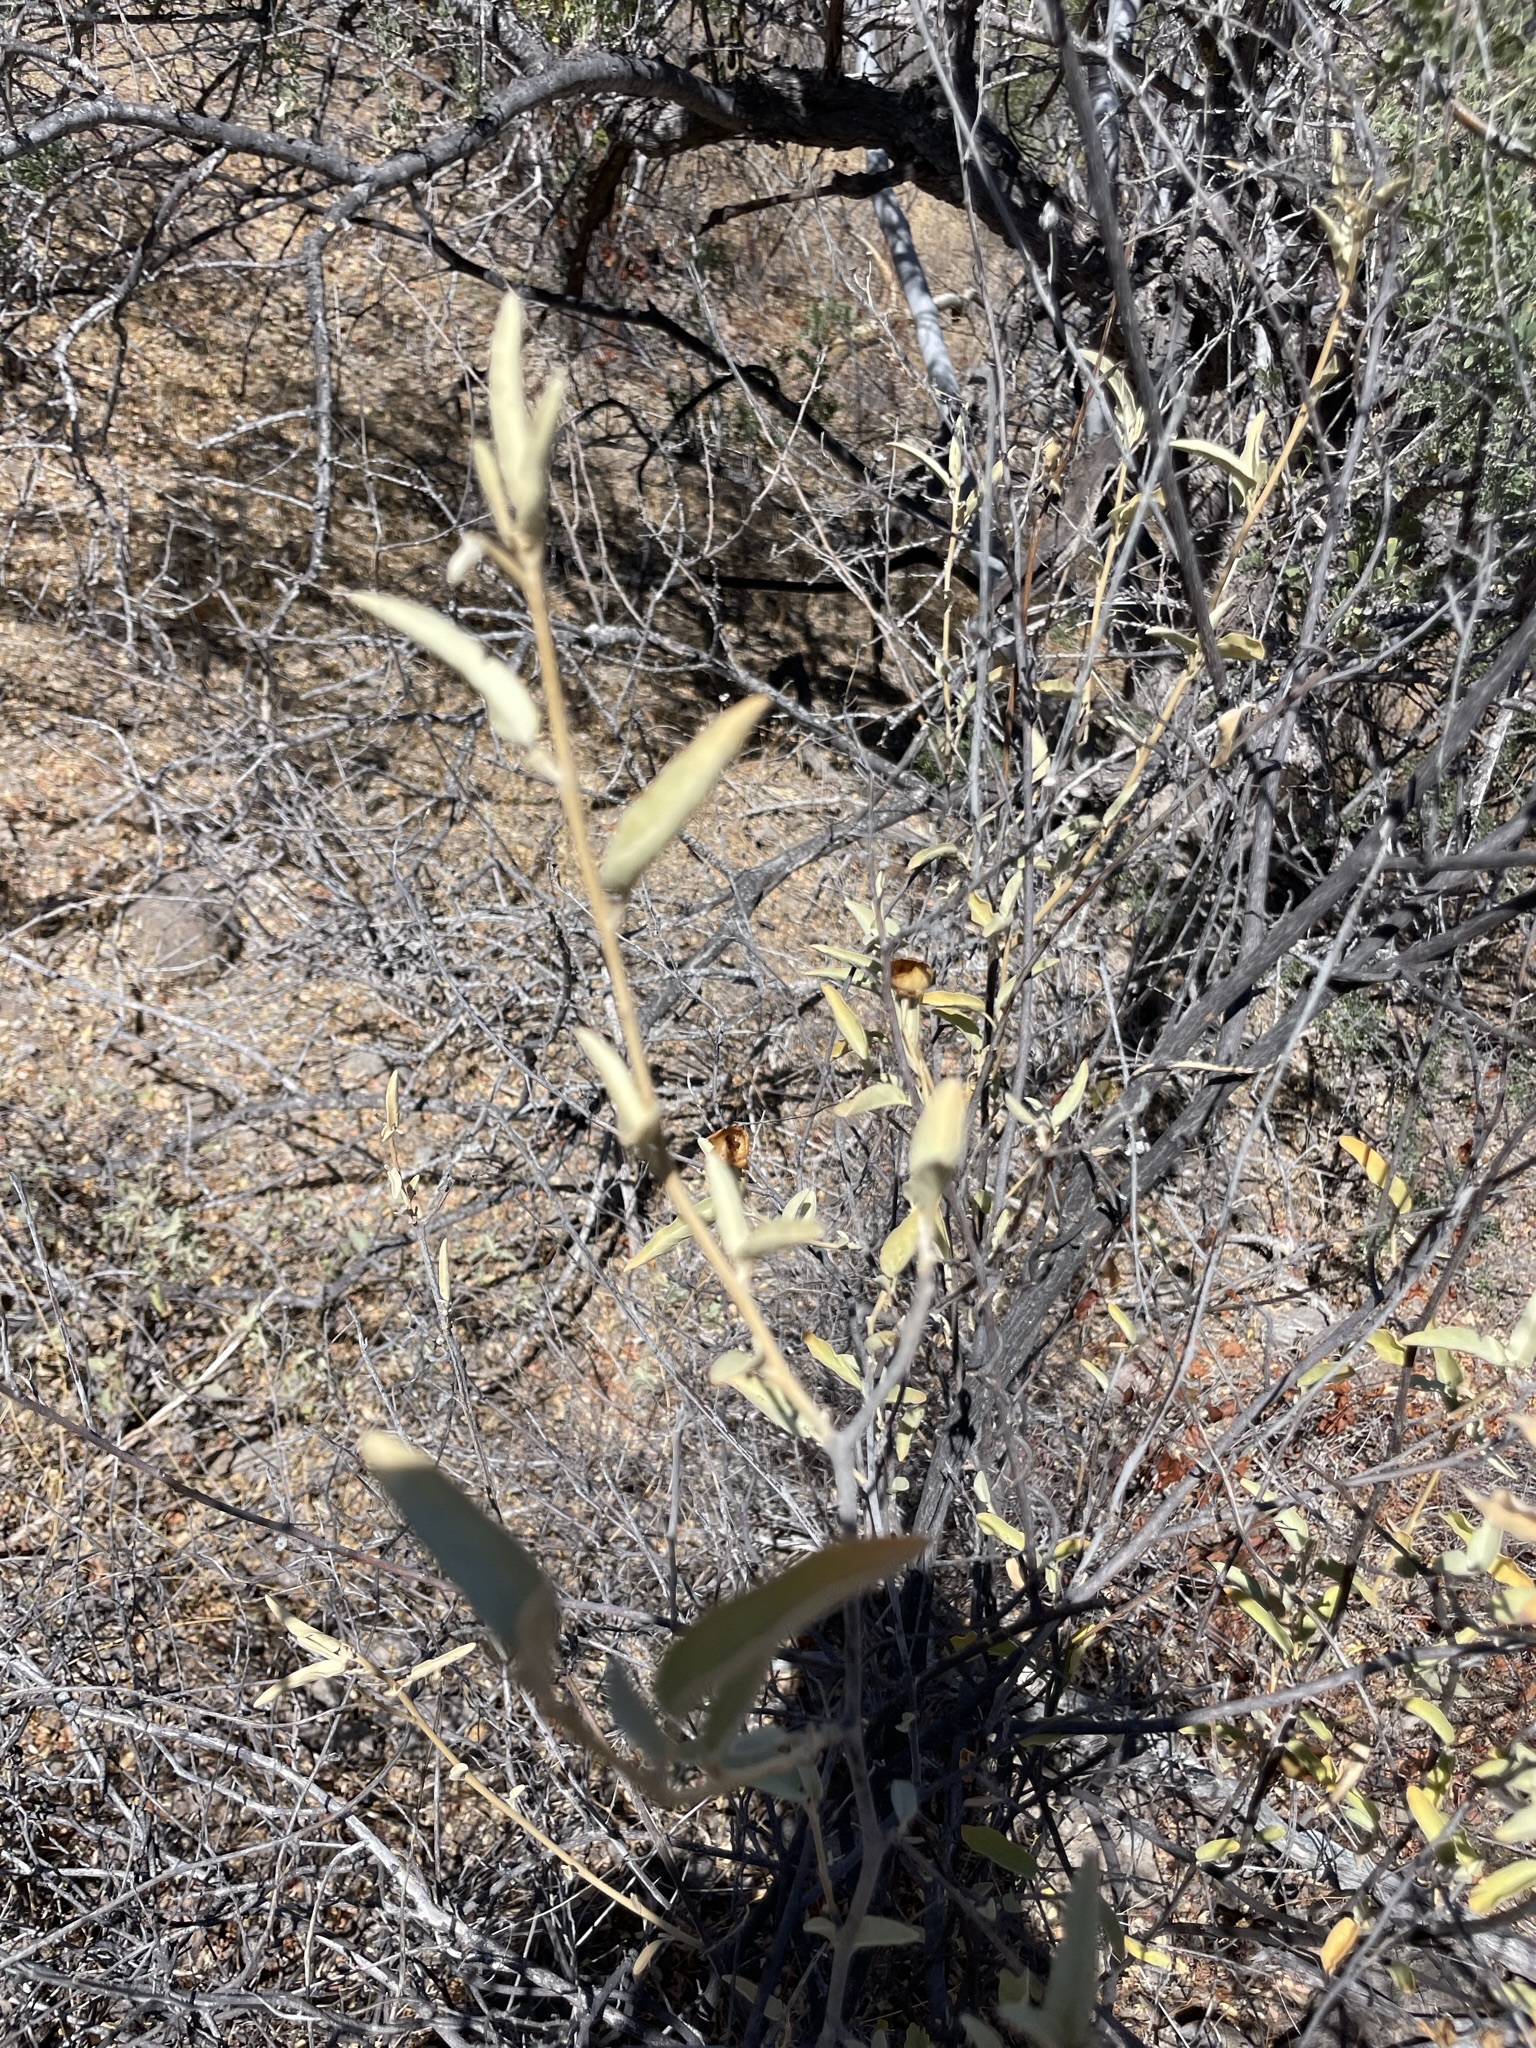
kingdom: Plantae
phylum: Tracheophyta
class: Magnoliopsida
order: Solanales
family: Solanaceae
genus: Solanum
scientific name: Solanum hindsianum
